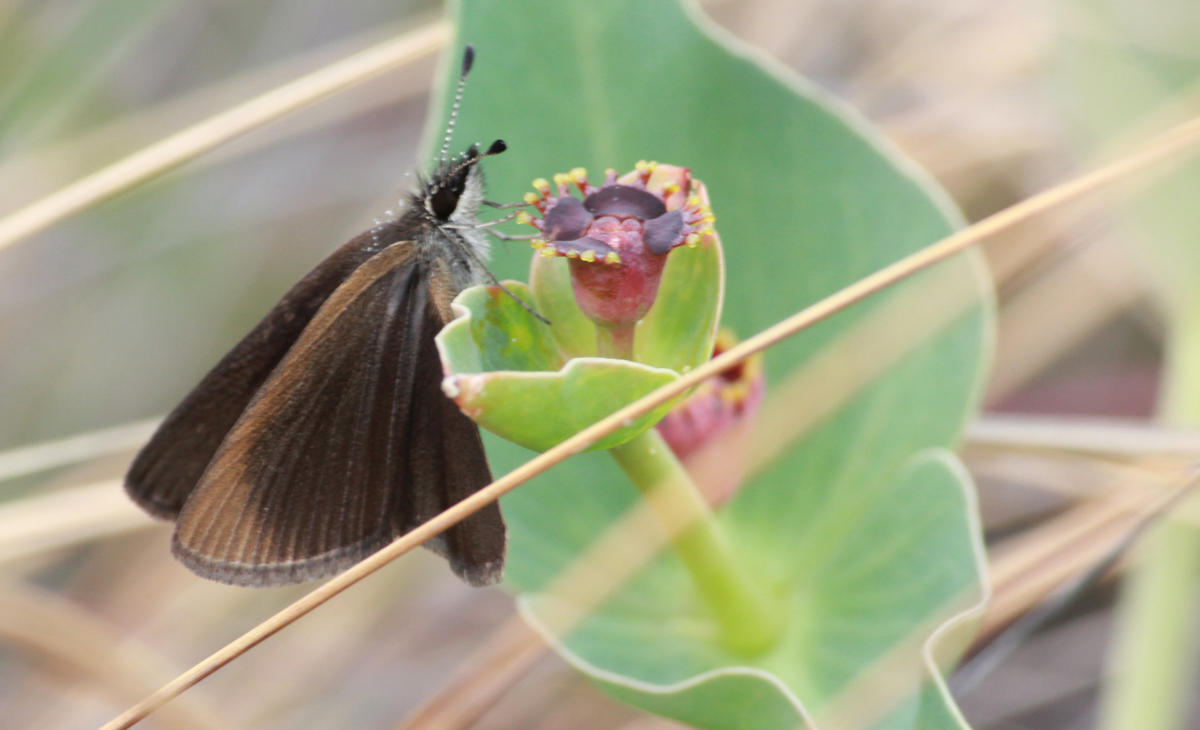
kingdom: Animalia
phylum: Arthropoda
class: Insecta
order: Lepidoptera
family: Hesperiidae
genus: Tsitana
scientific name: Tsitana tsita
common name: Dismal sylph
